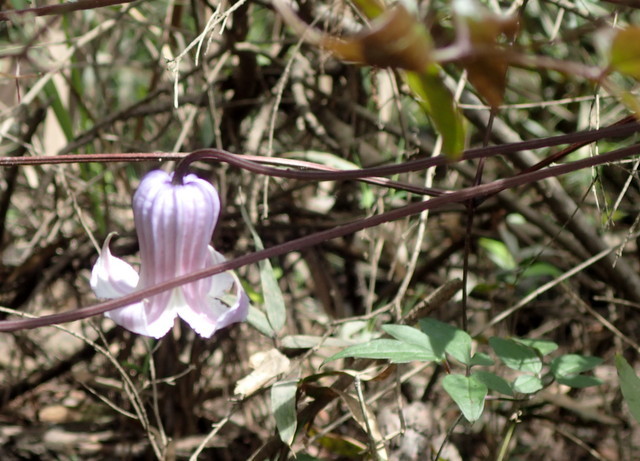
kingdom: Plantae
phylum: Tracheophyta
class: Magnoliopsida
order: Ranunculales
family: Ranunculaceae
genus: Clematis
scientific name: Clematis crispa
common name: Curly clematis
